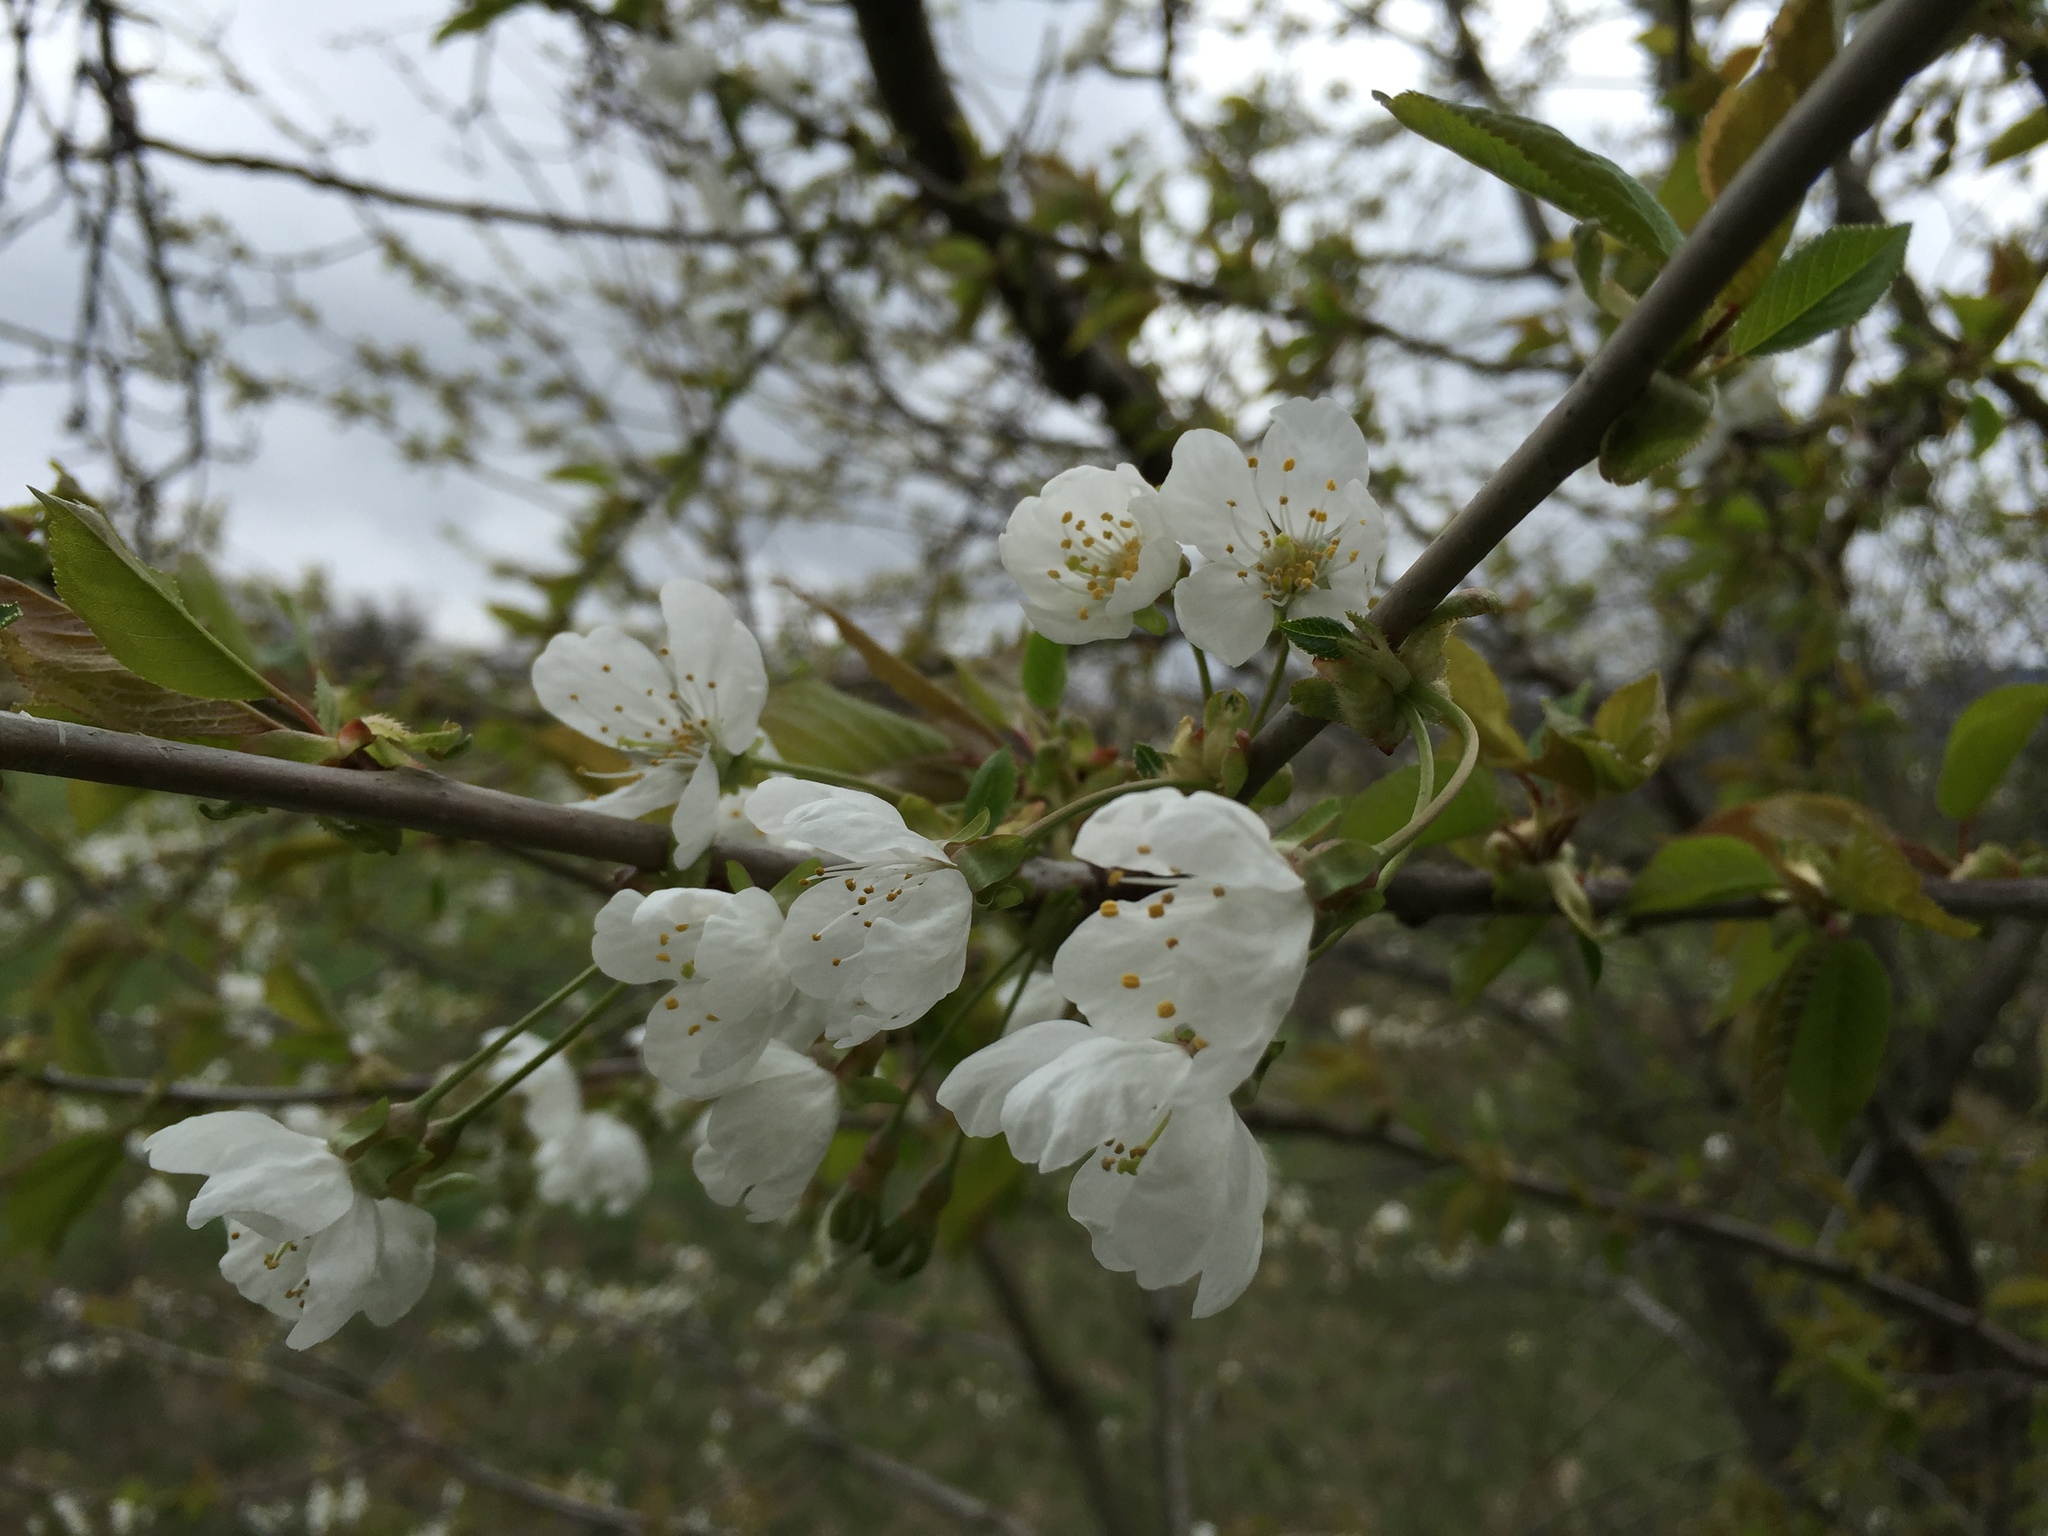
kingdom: Plantae
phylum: Tracheophyta
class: Magnoliopsida
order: Rosales
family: Rosaceae
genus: Prunus
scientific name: Prunus avium
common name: Sweet cherry
